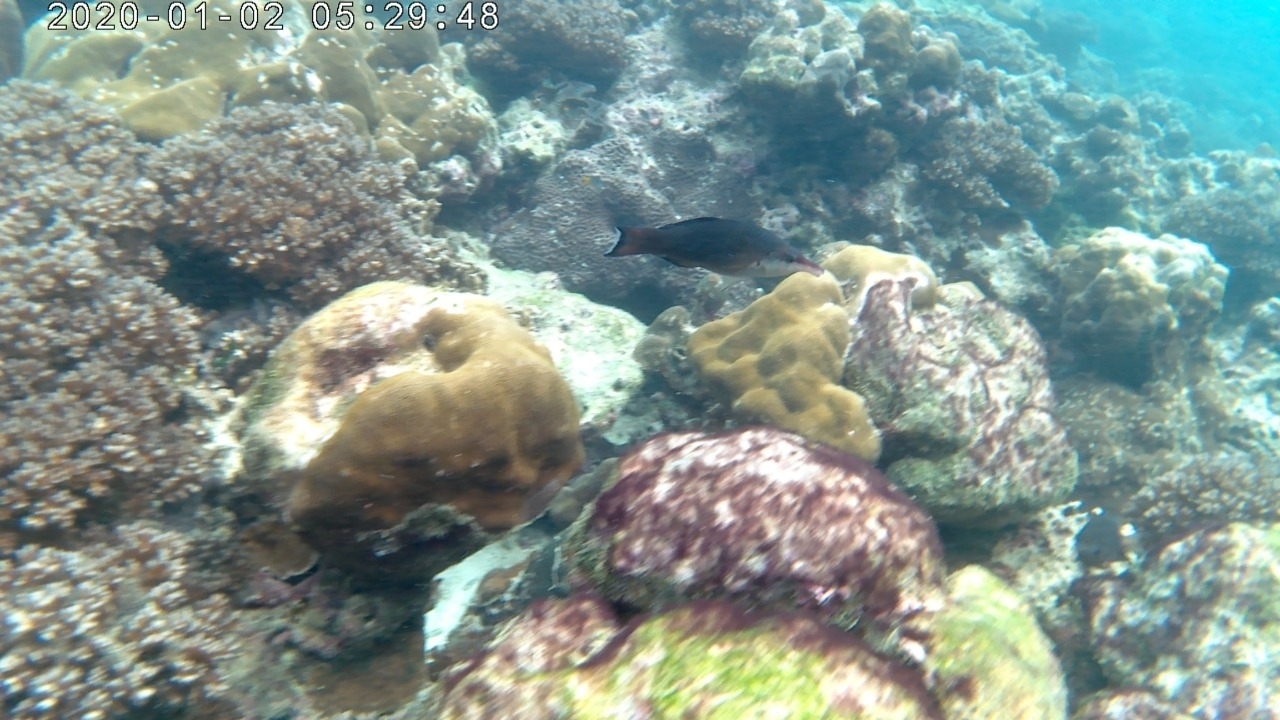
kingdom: Animalia
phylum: Chordata
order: Perciformes
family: Labridae
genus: Gomphosus
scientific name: Gomphosus caeruleus
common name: Bird wrasse
